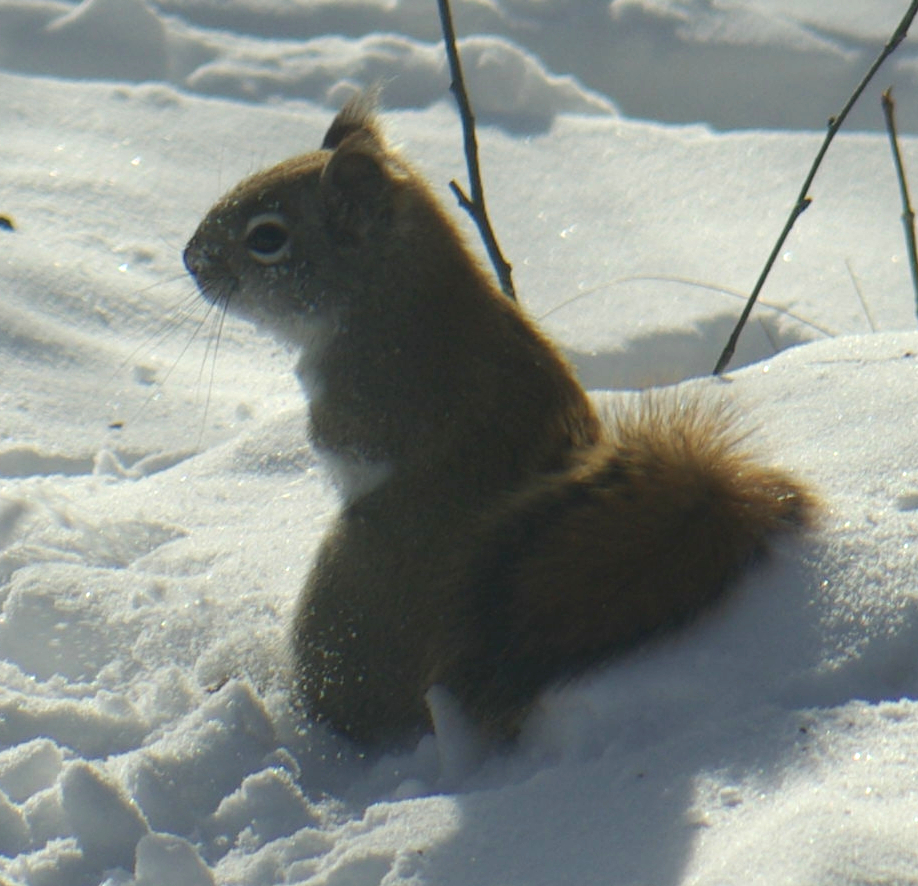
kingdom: Animalia
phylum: Chordata
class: Mammalia
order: Rodentia
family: Sciuridae
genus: Tamiasciurus
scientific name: Tamiasciurus hudsonicus
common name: Red squirrel
